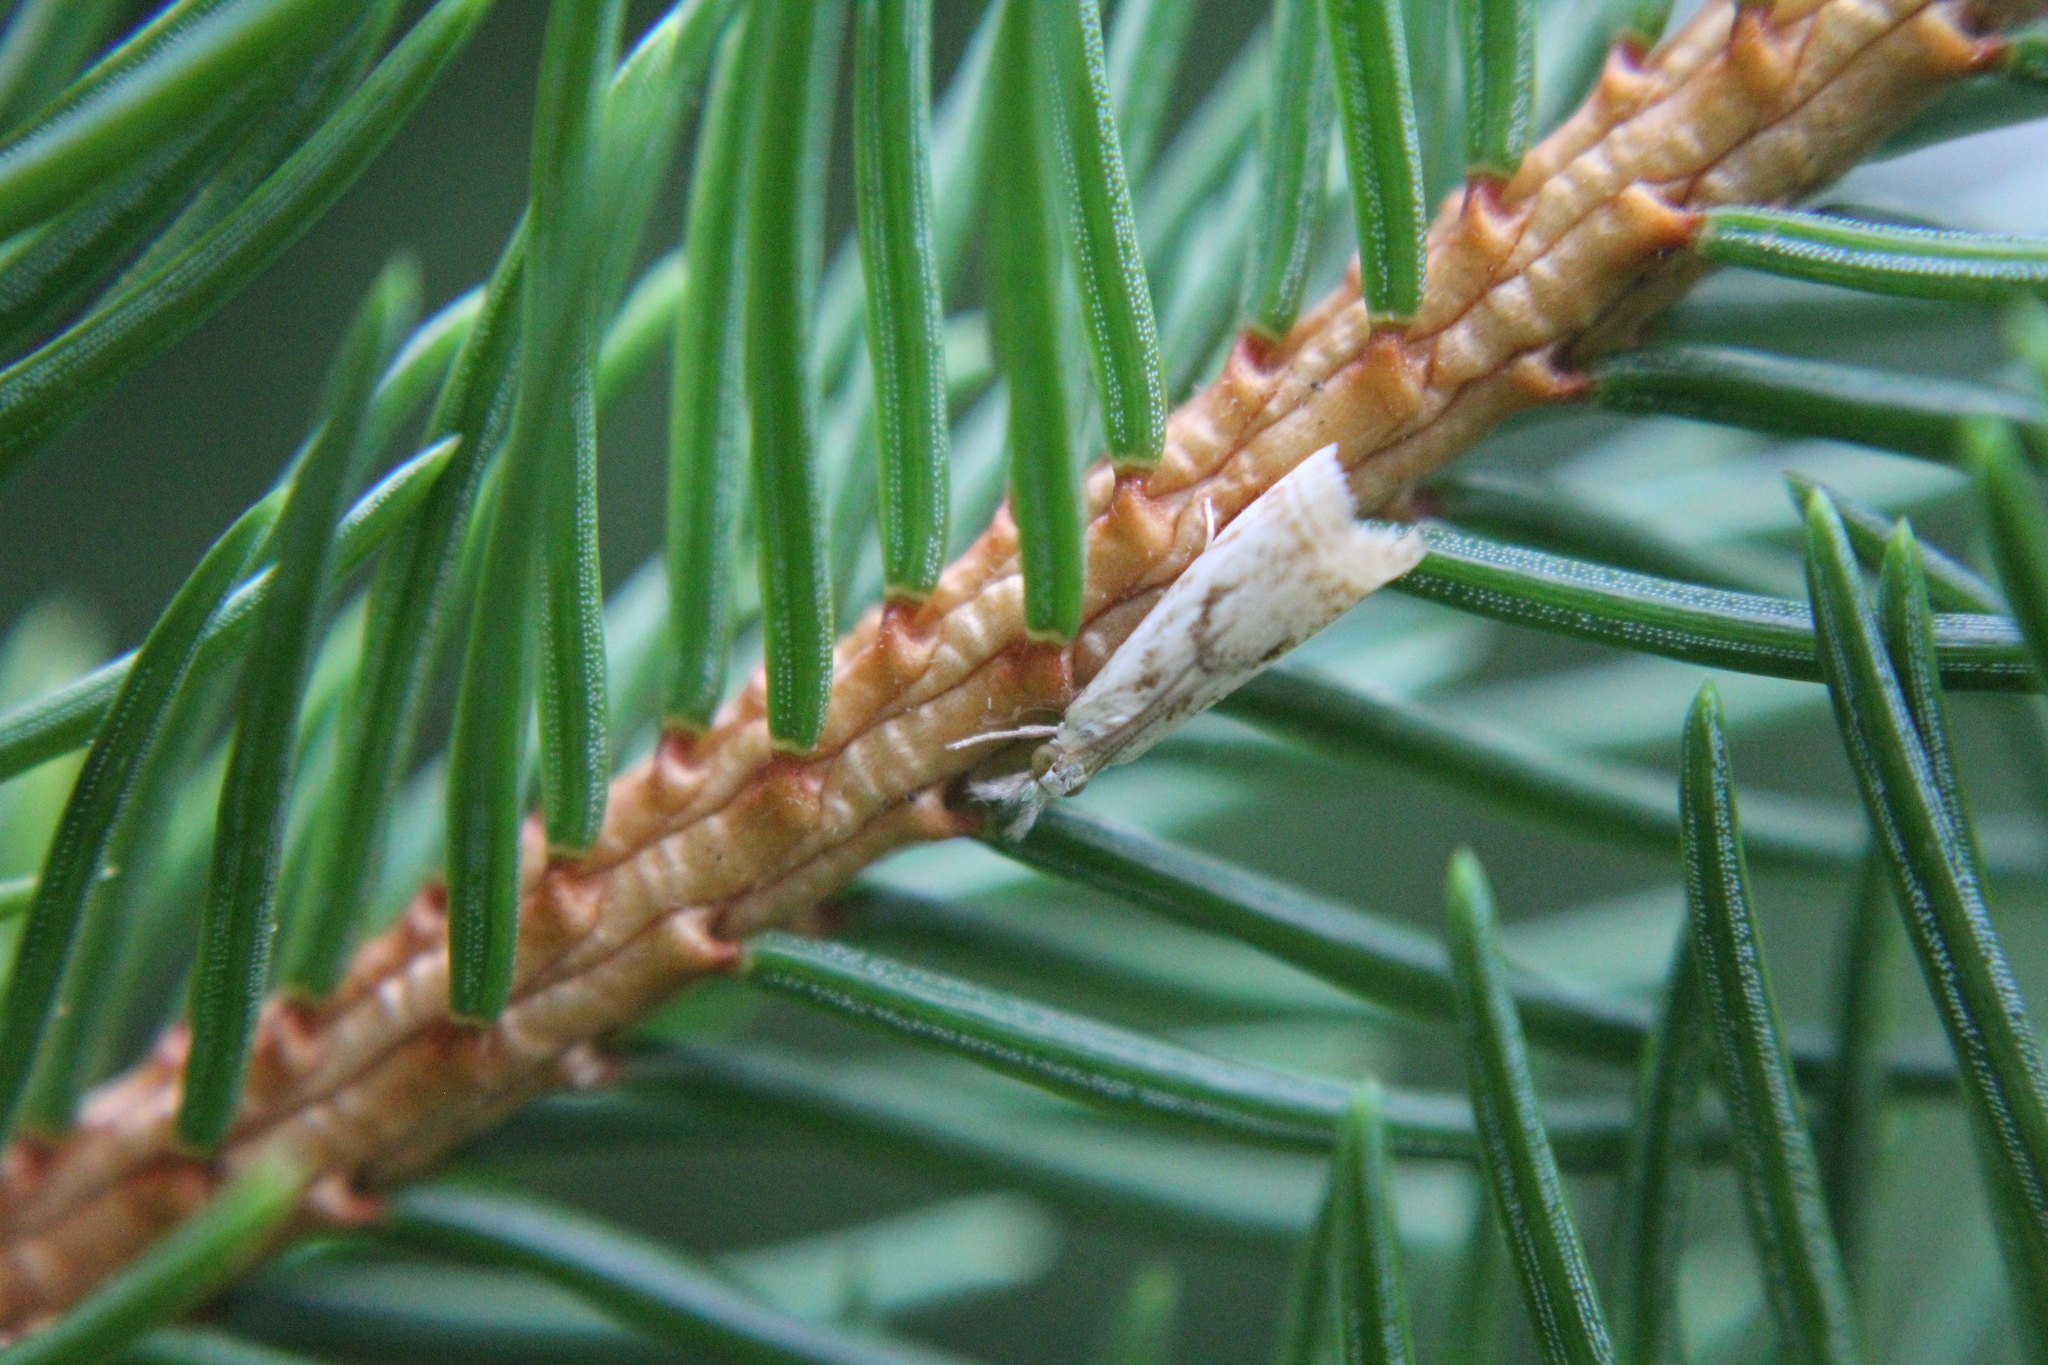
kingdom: Animalia
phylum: Arthropoda
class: Insecta
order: Lepidoptera
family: Crambidae
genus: Microcrambus
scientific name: Microcrambus elegans
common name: Elegant grass-veneer
